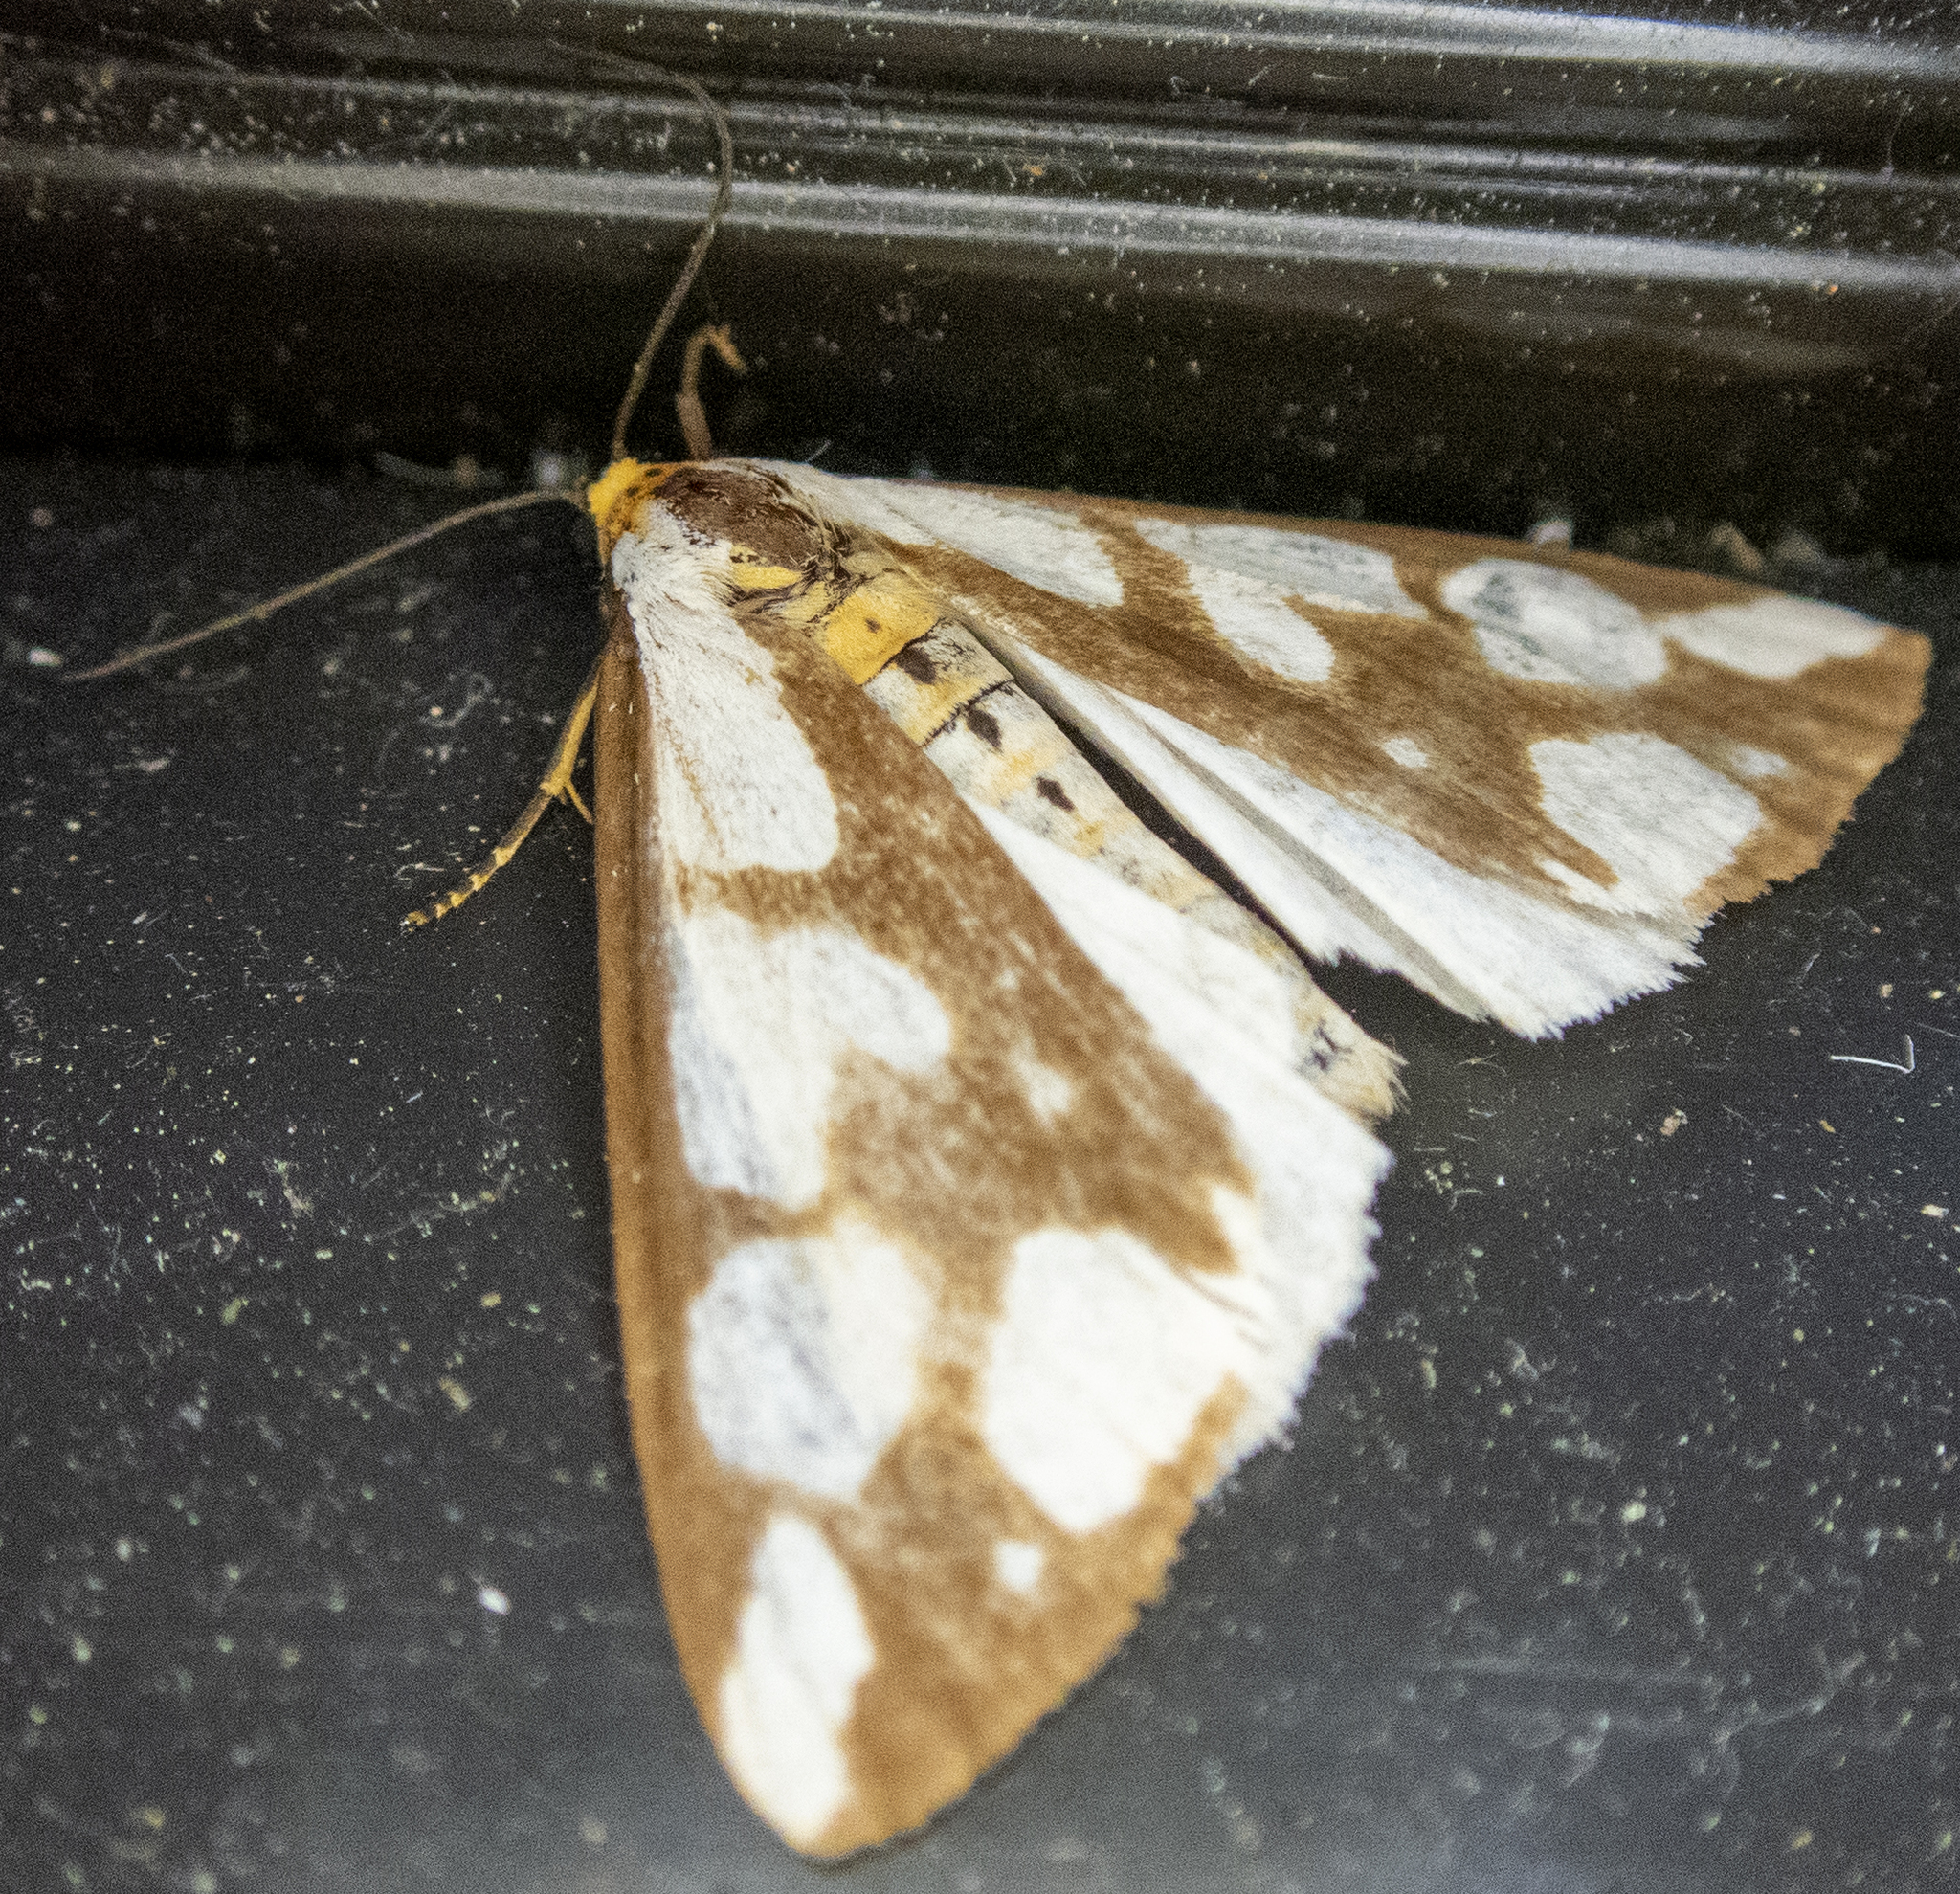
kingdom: Animalia
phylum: Arthropoda
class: Insecta
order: Lepidoptera
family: Erebidae
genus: Haploa
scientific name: Haploa confusa
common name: Confused haploa moth
